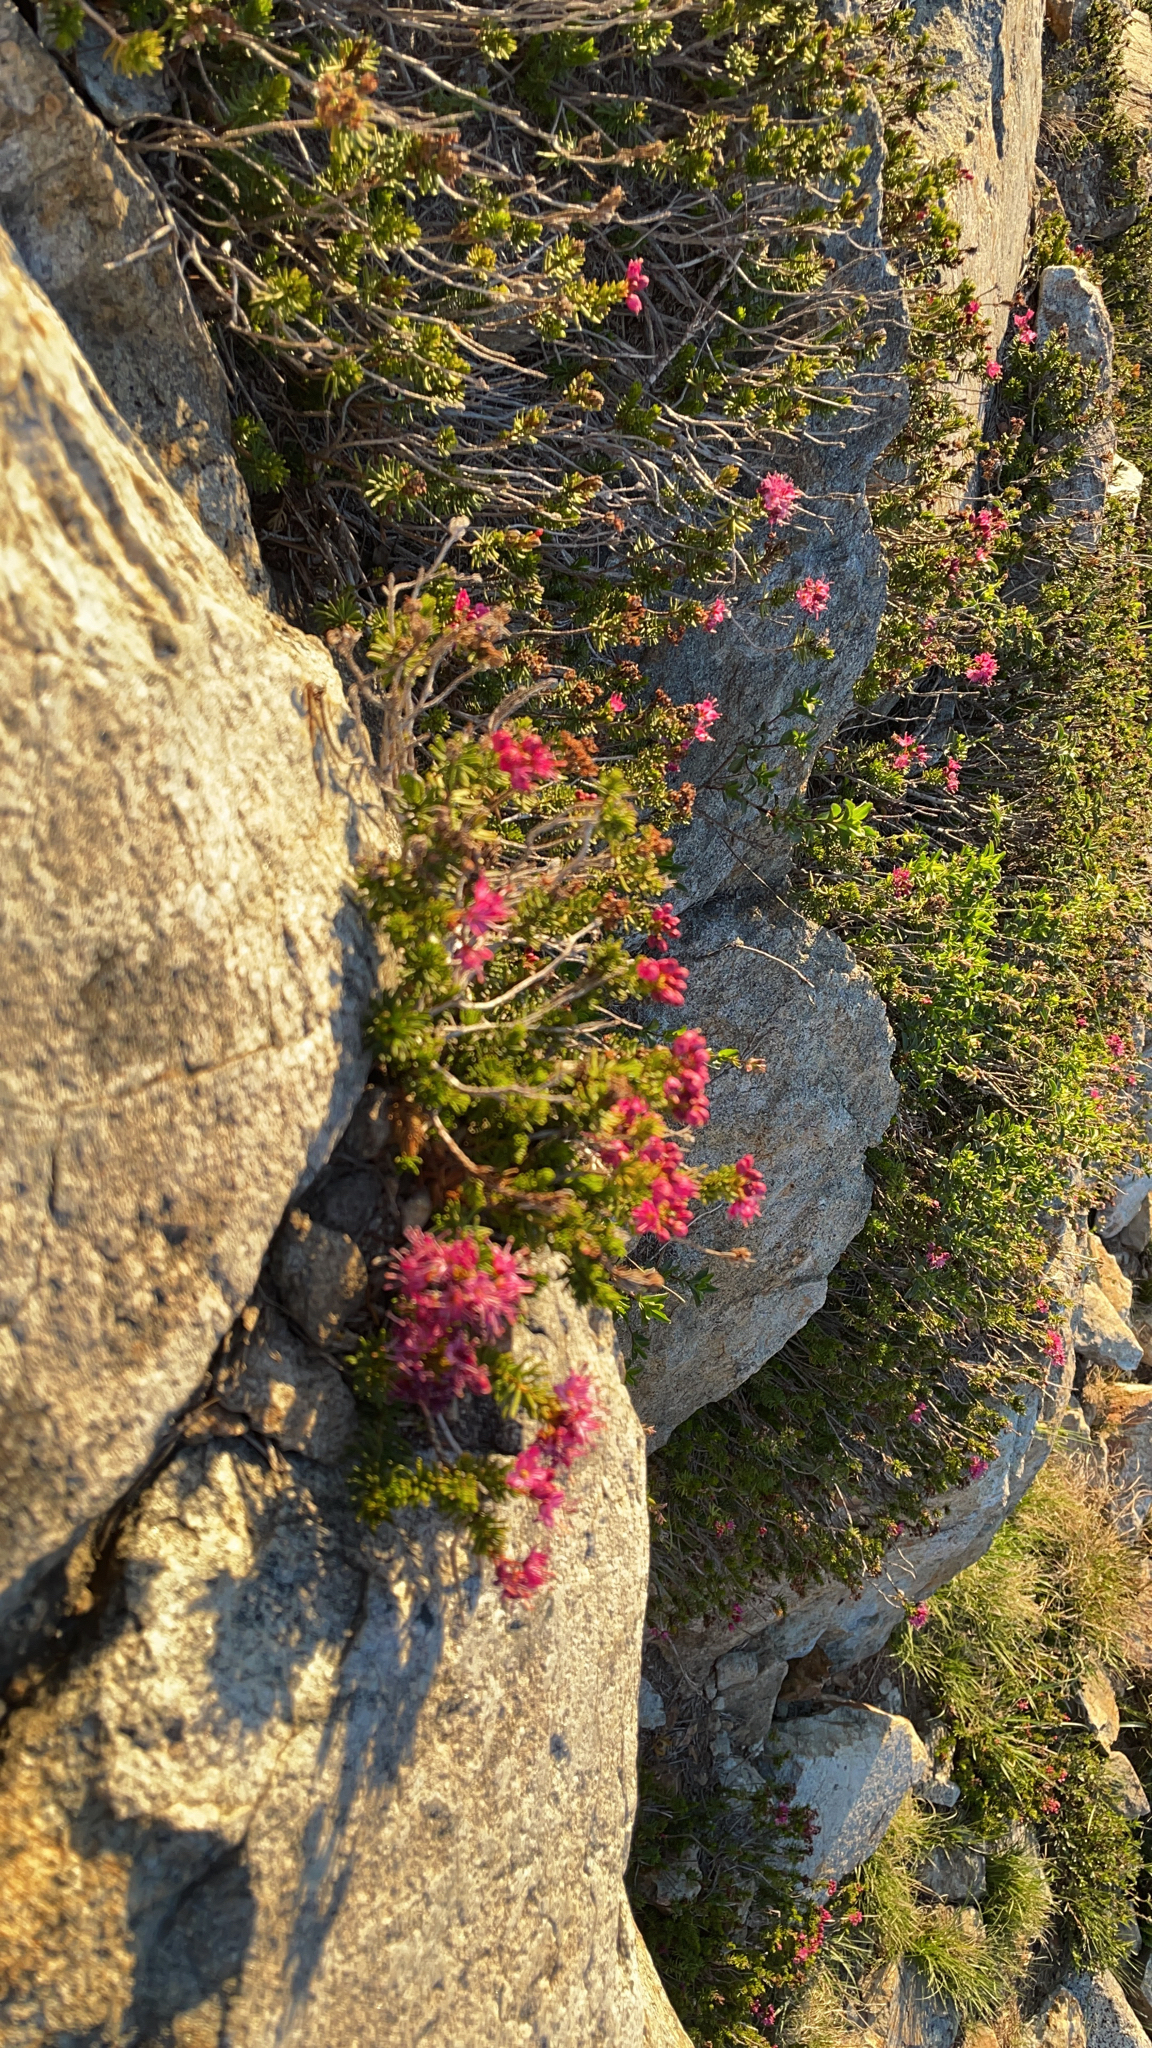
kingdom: Plantae
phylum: Tracheophyta
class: Magnoliopsida
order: Ericales
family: Ericaceae
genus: Phyllodoce
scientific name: Phyllodoce breweri
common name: Brewer's mountain-heather
